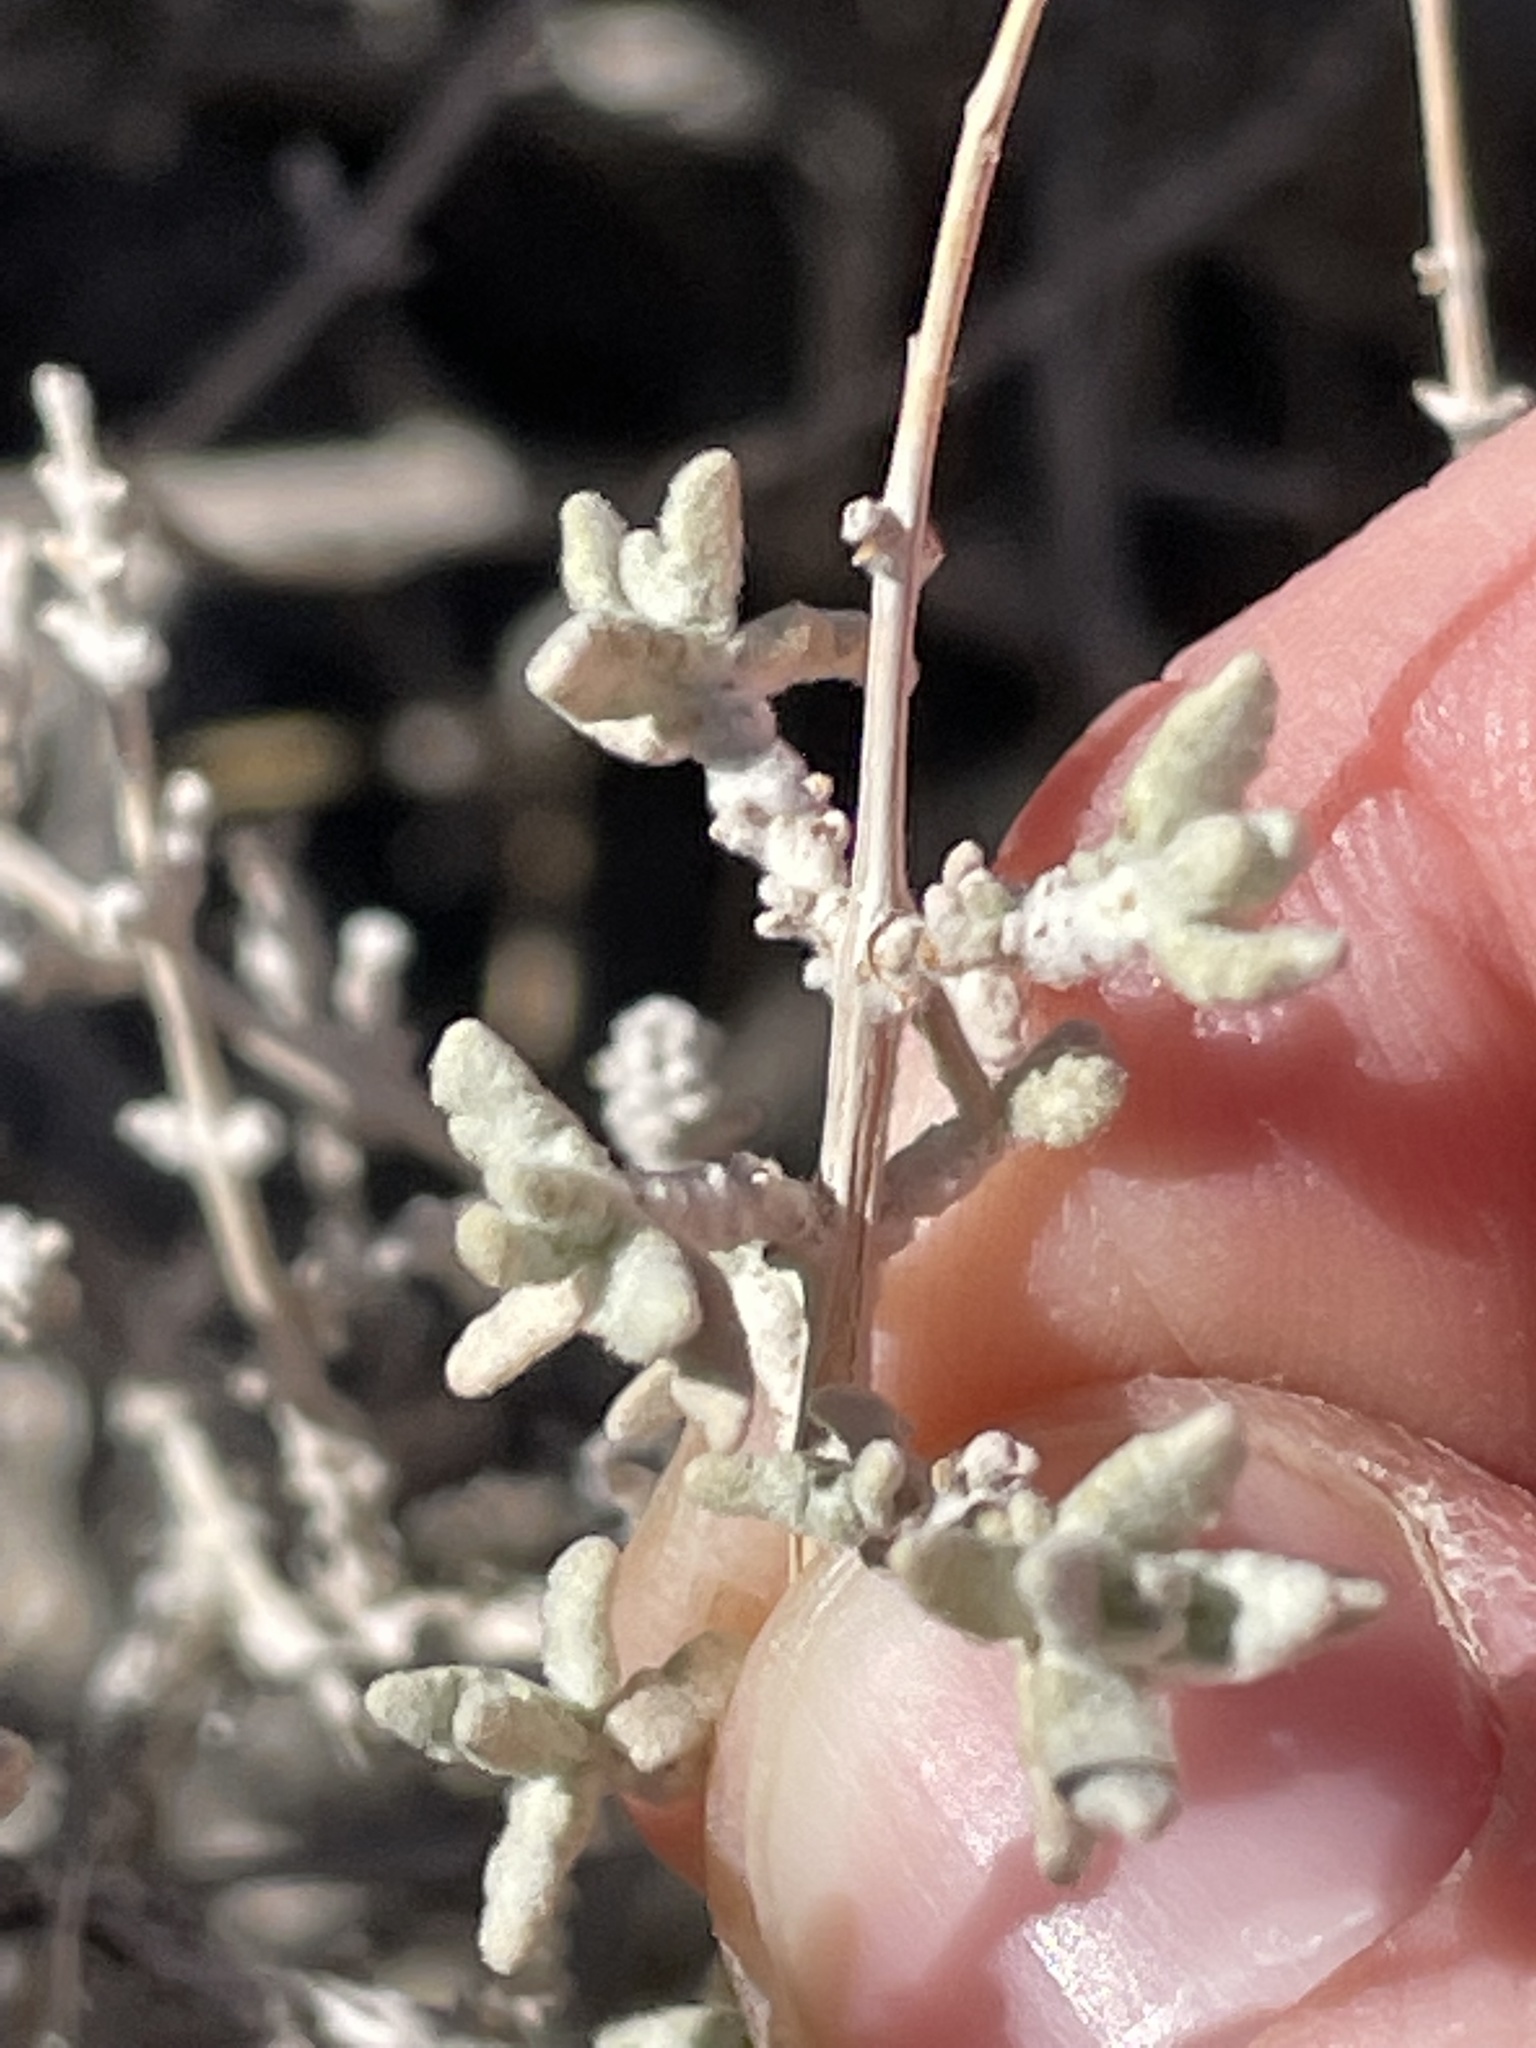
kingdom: Plantae
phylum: Tracheophyta
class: Magnoliopsida
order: Lamiales
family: Scrophulariaceae
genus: Buddleja
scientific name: Buddleja utahensis
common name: Utah butterfly-bush
